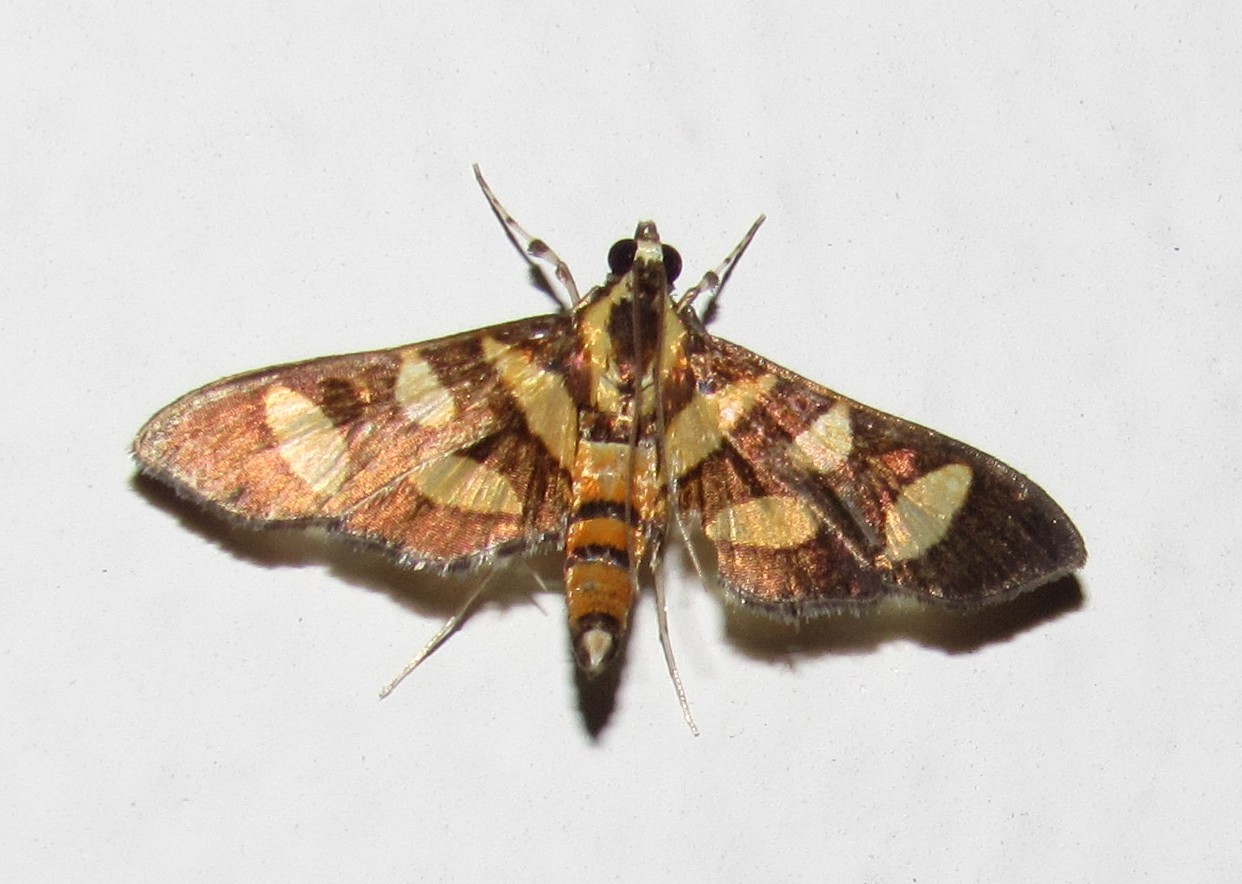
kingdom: Animalia
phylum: Arthropoda
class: Insecta
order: Lepidoptera
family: Crambidae
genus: Syngamia
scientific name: Syngamia florella
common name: Orange-spotted flower moth
